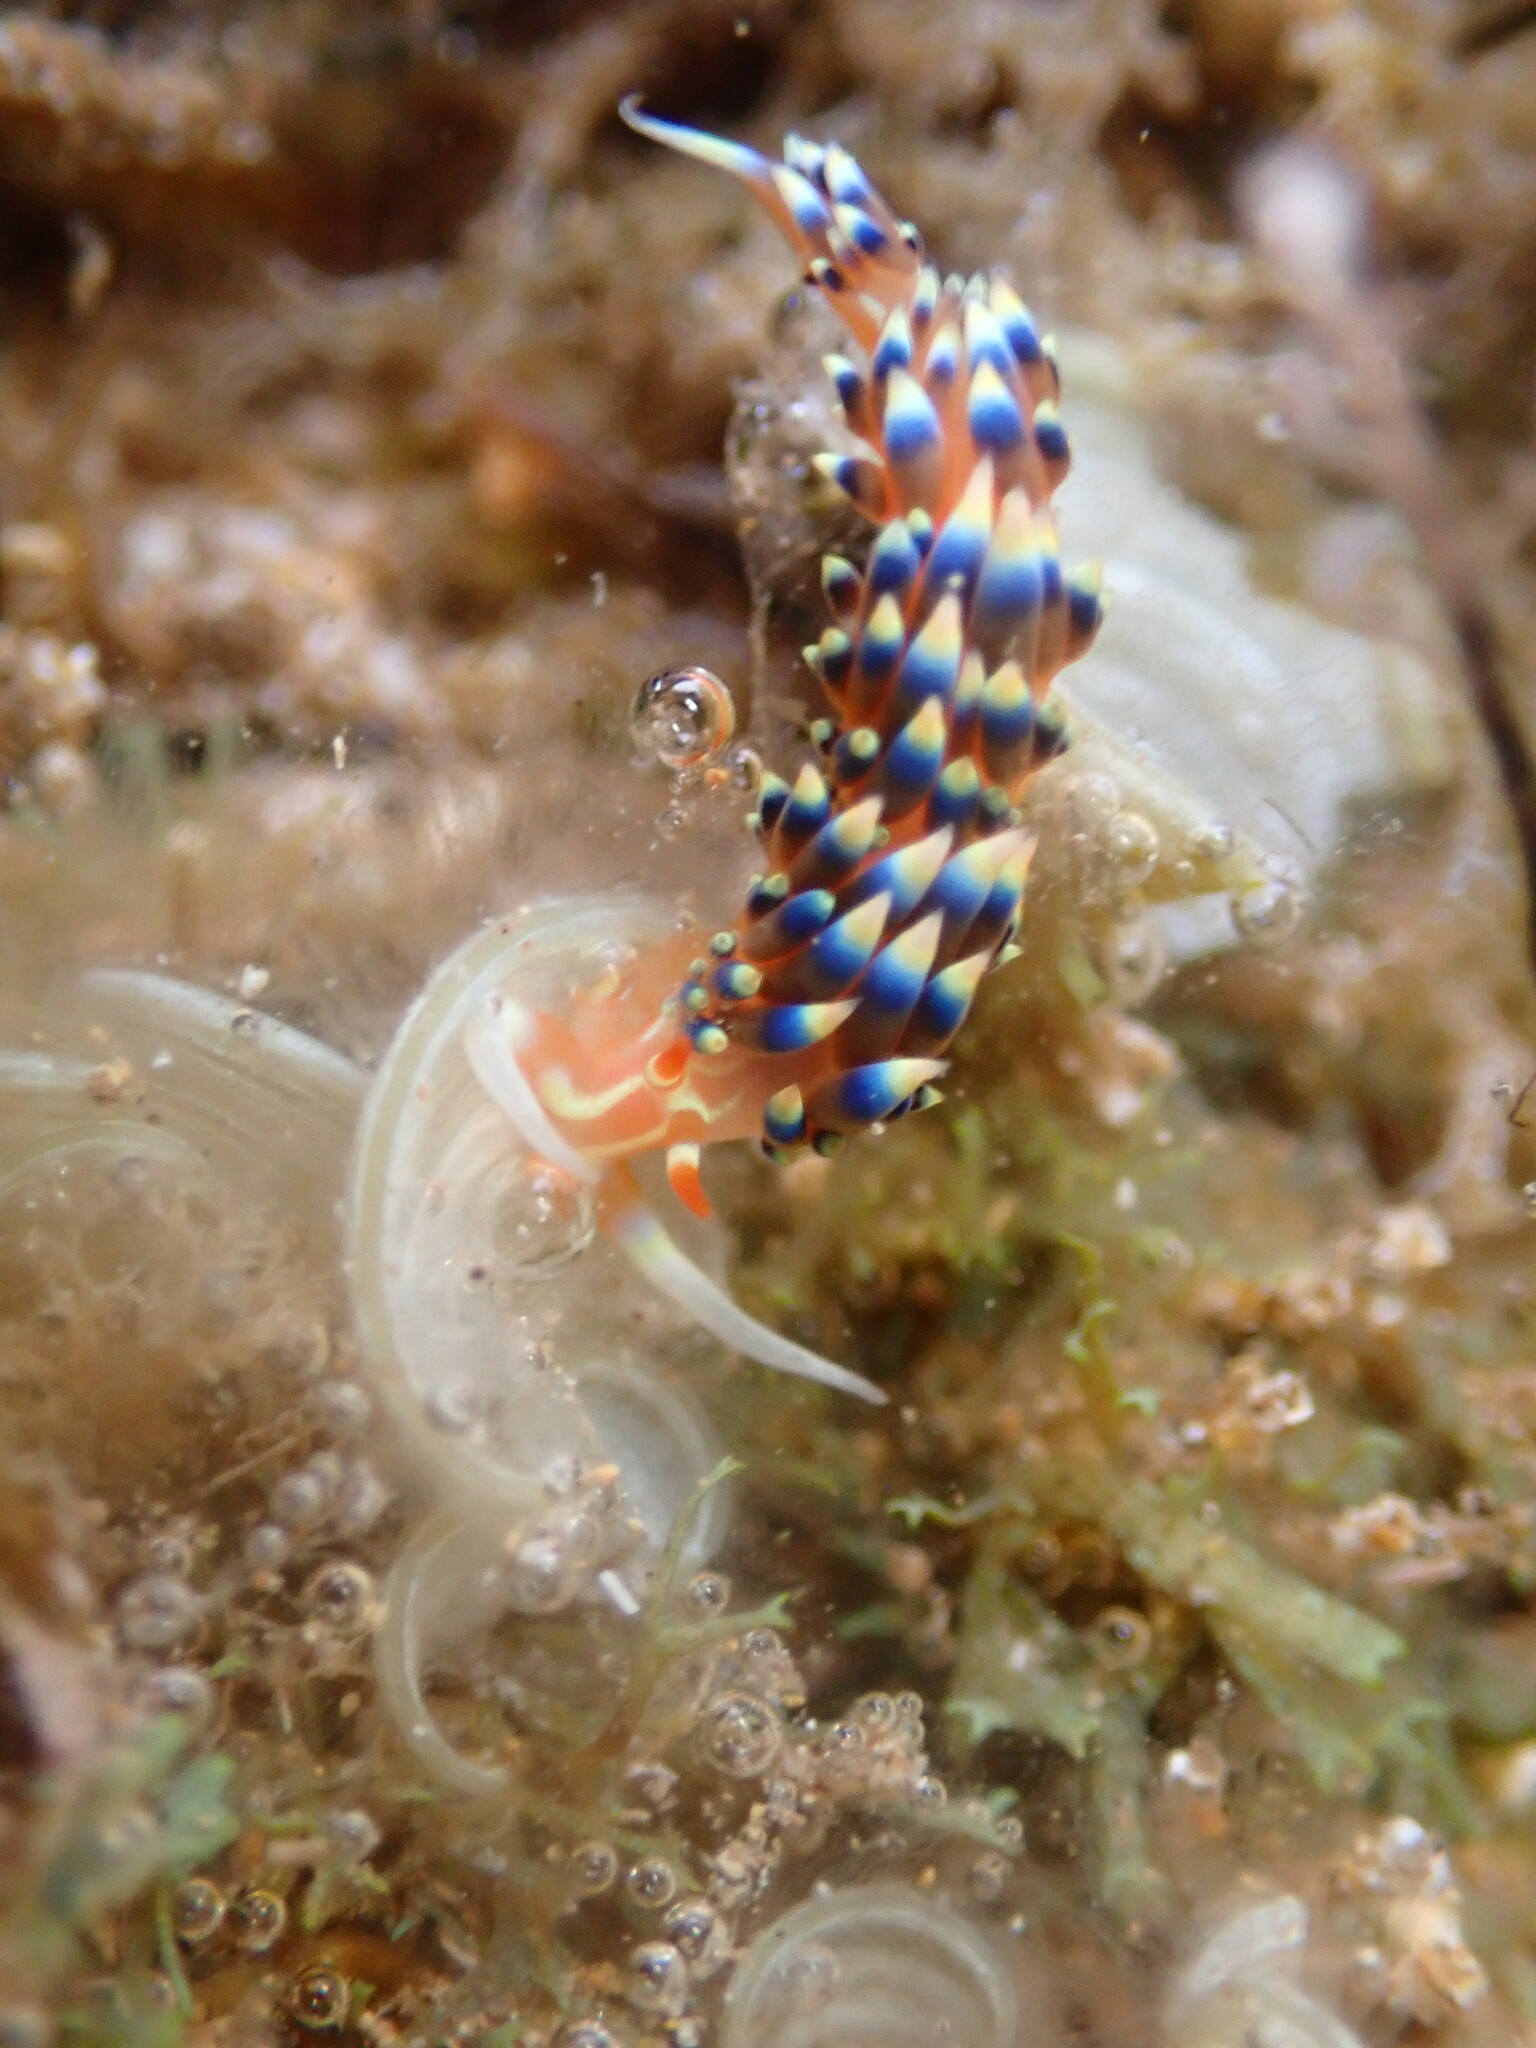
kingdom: Animalia
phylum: Mollusca
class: Gastropoda
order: Nudibranchia
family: Facelinidae
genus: Caloria
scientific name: Caloria indica
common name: Sea slug
